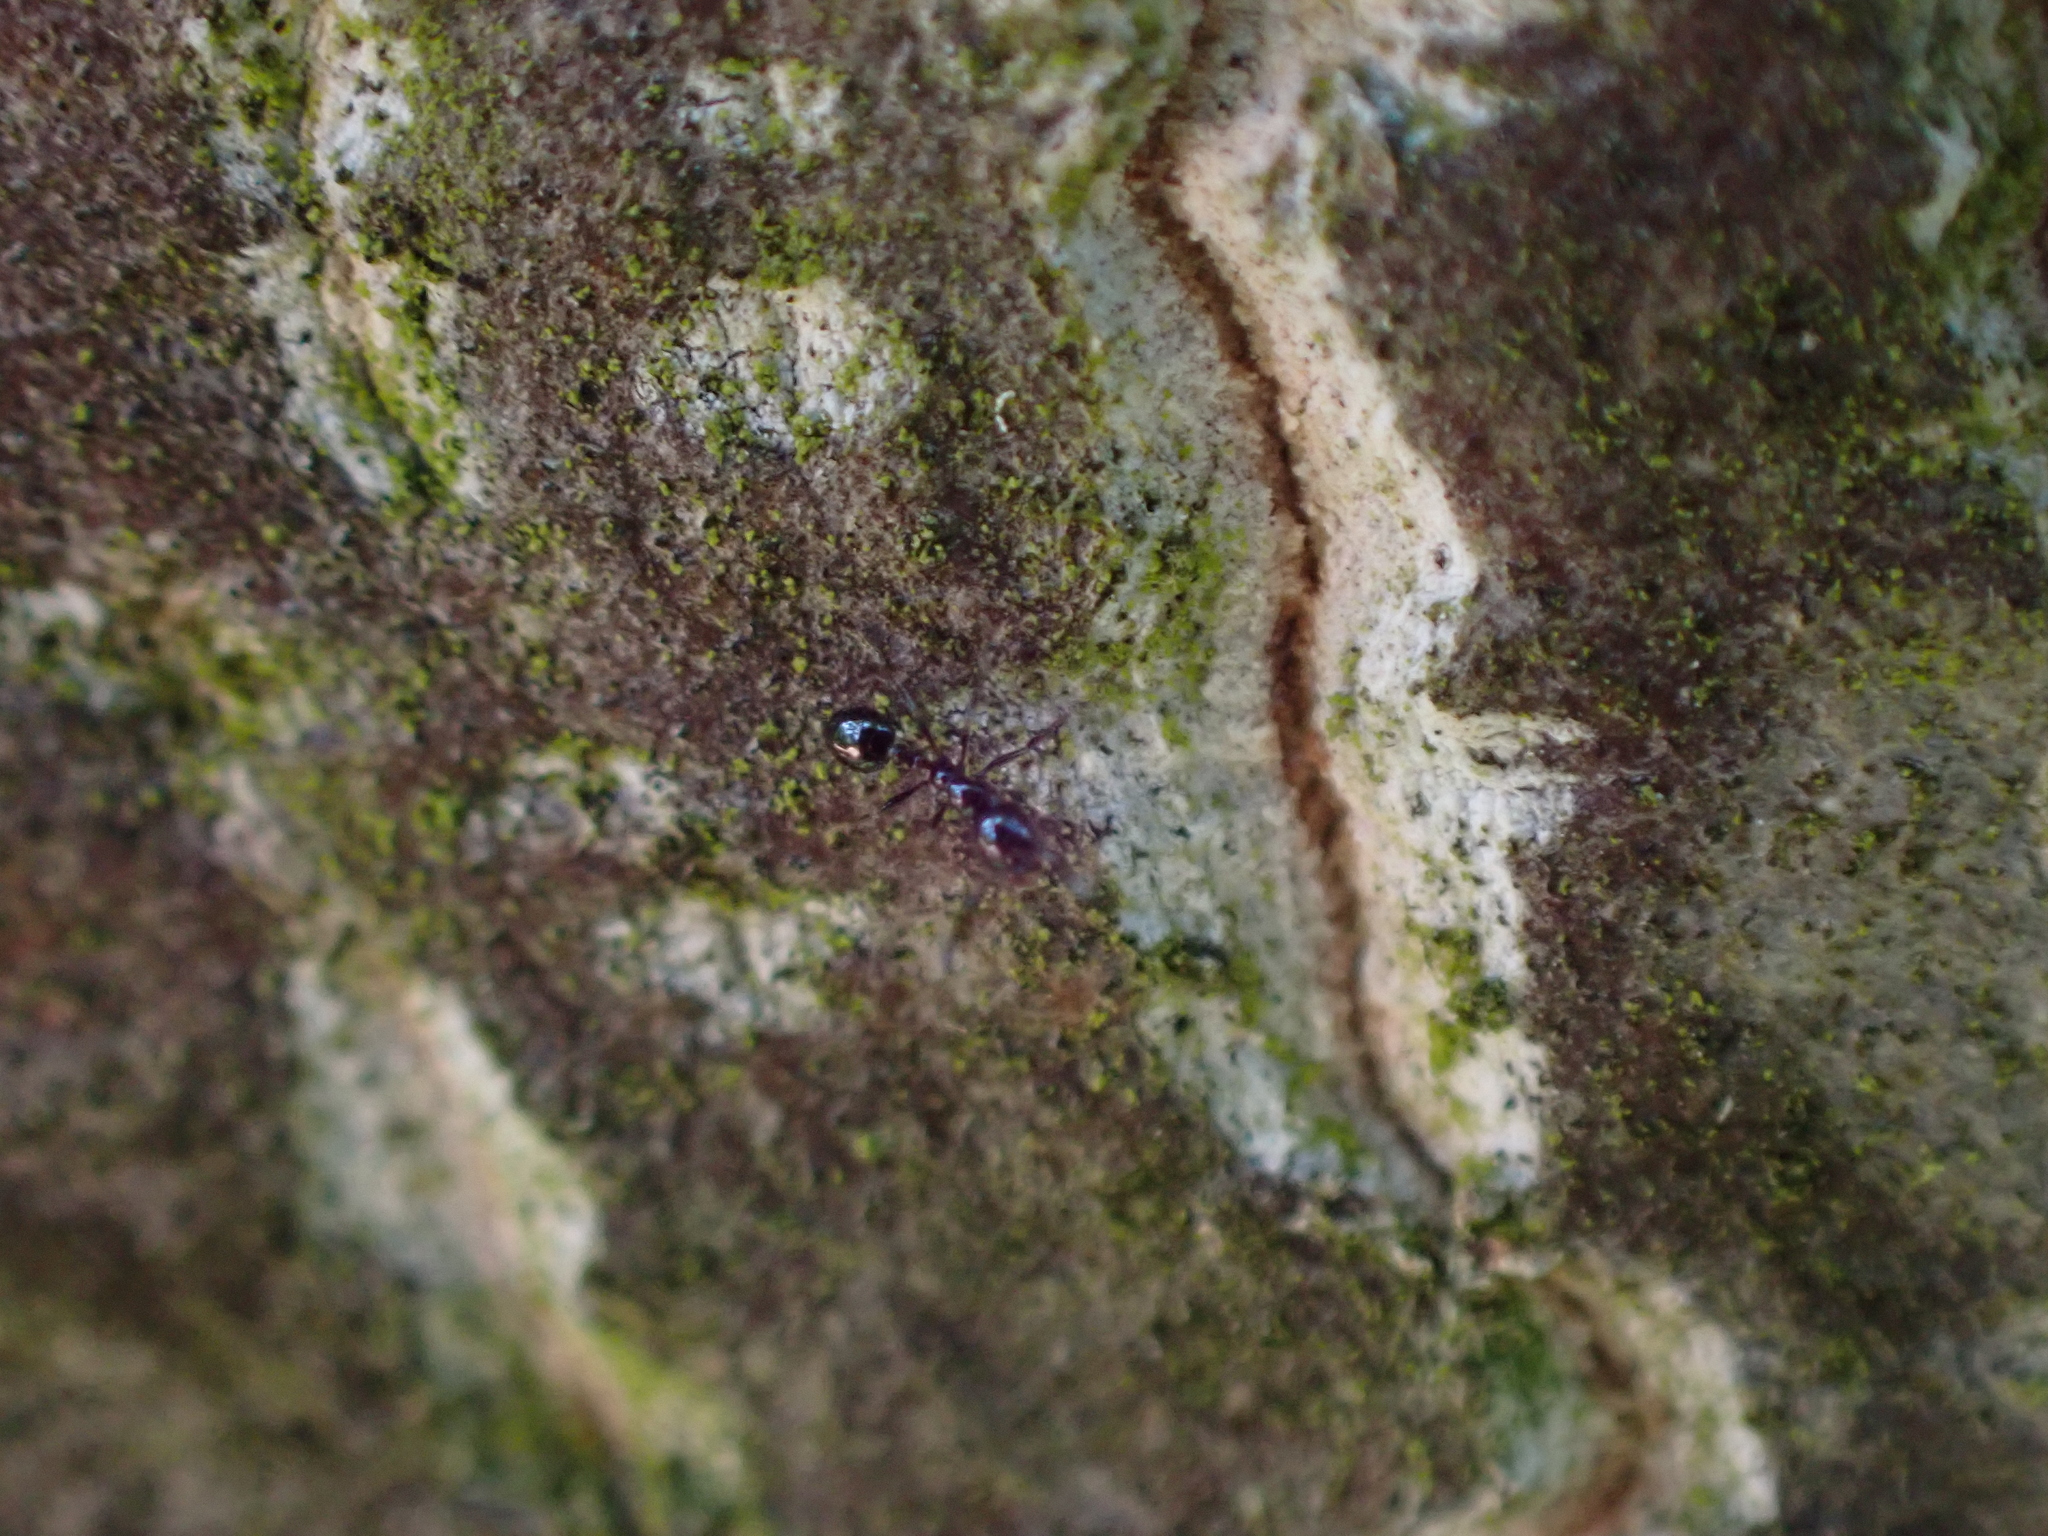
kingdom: Animalia
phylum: Arthropoda
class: Insecta
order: Hymenoptera
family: Formicidae
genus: Monomorium
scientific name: Monomorium minimum
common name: Little black ant
